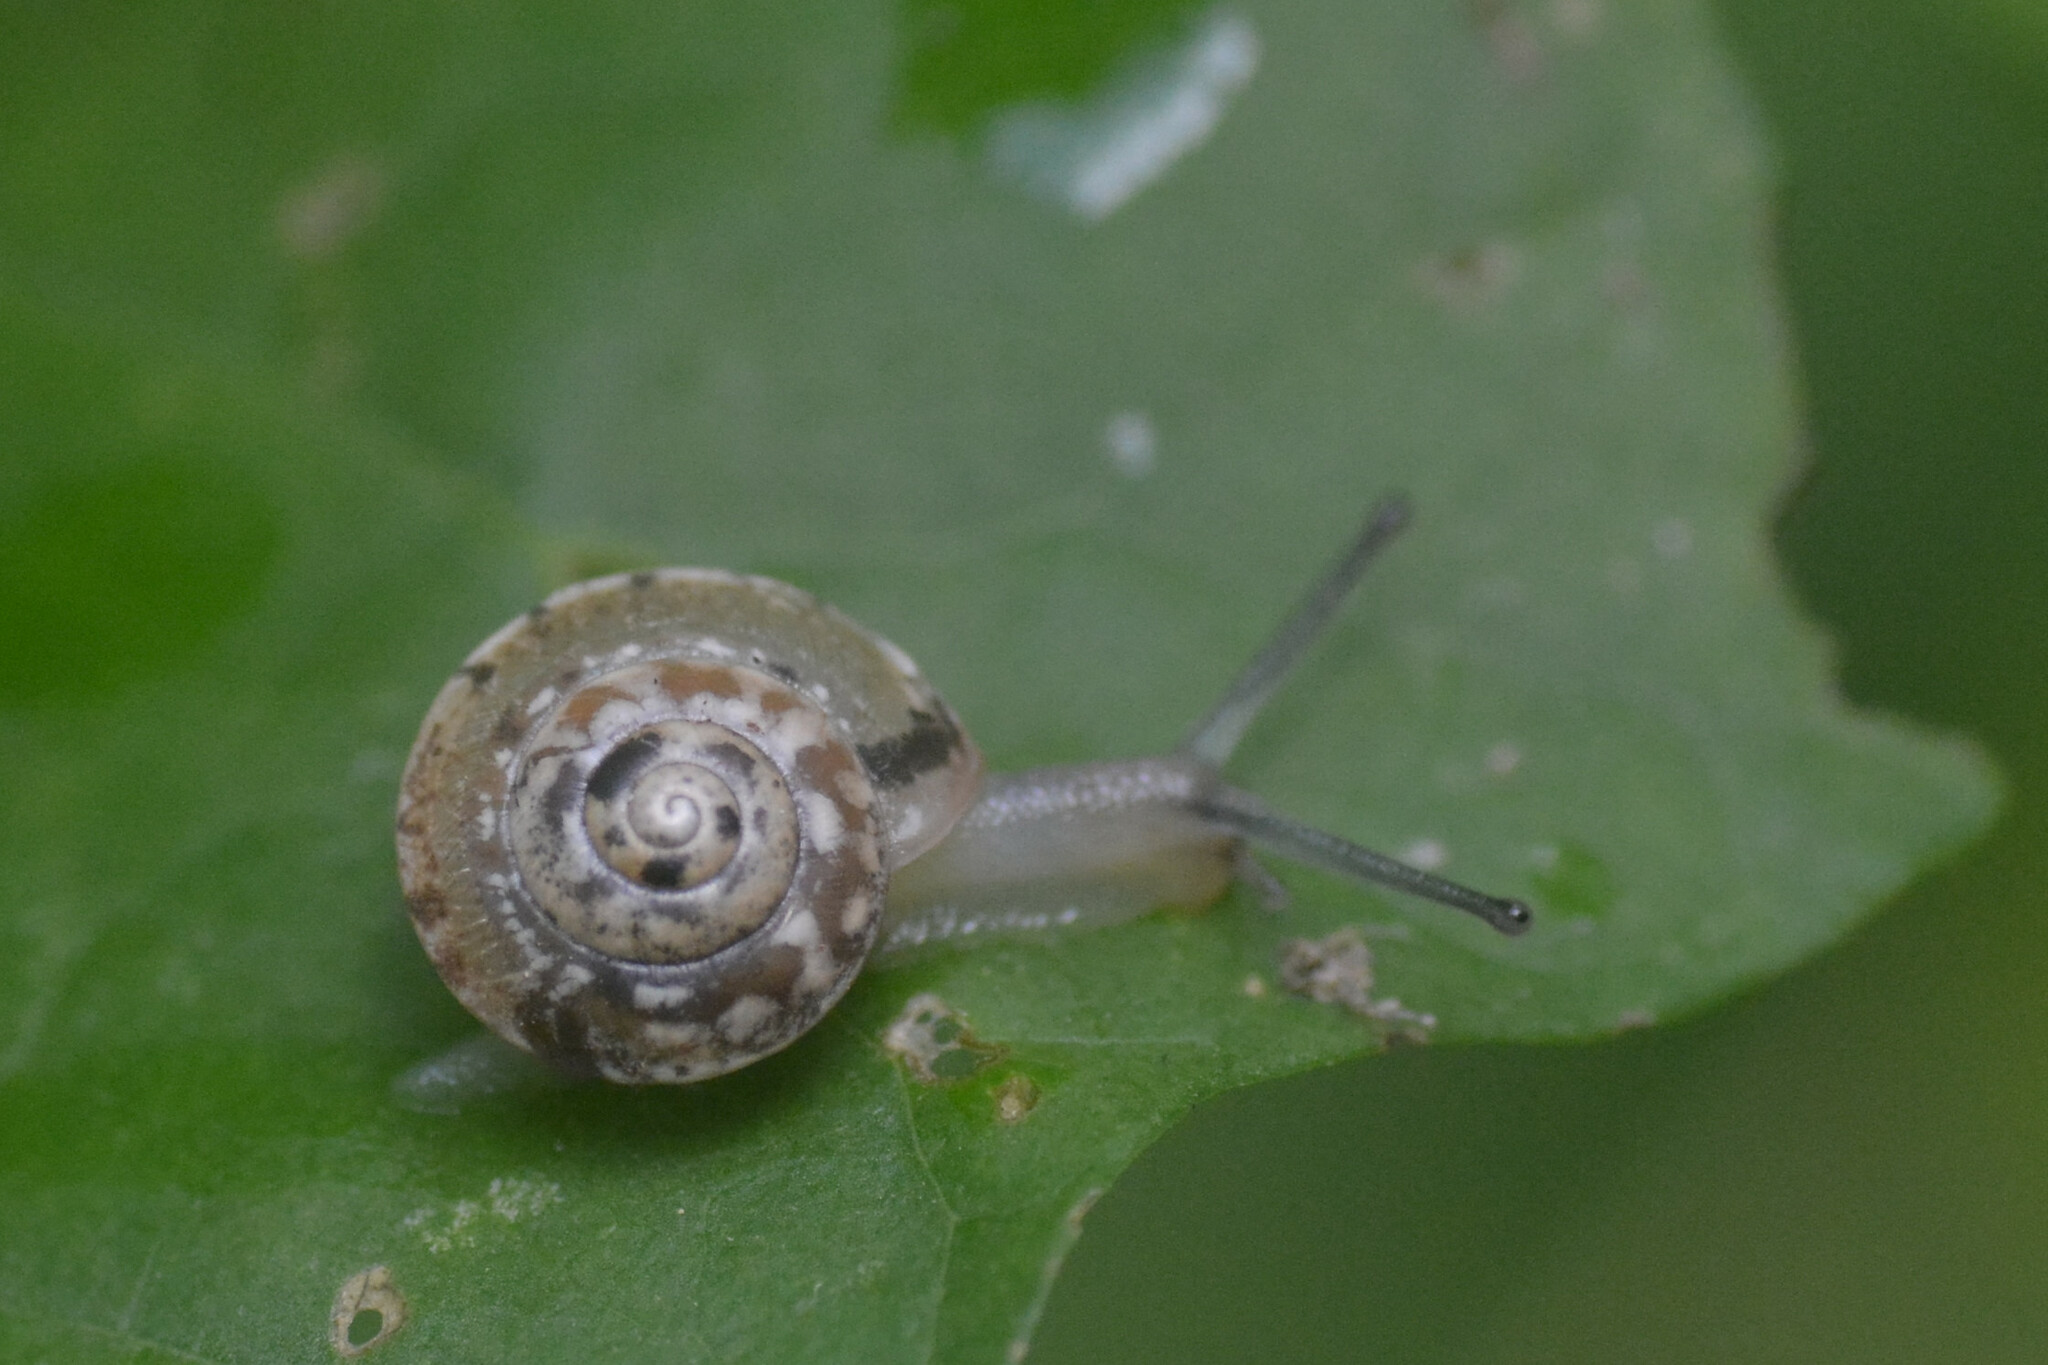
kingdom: Animalia
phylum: Mollusca
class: Gastropoda
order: Stylommatophora
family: Hygromiidae
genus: Hygromia
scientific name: Hygromia cinctella
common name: Girdled snail
